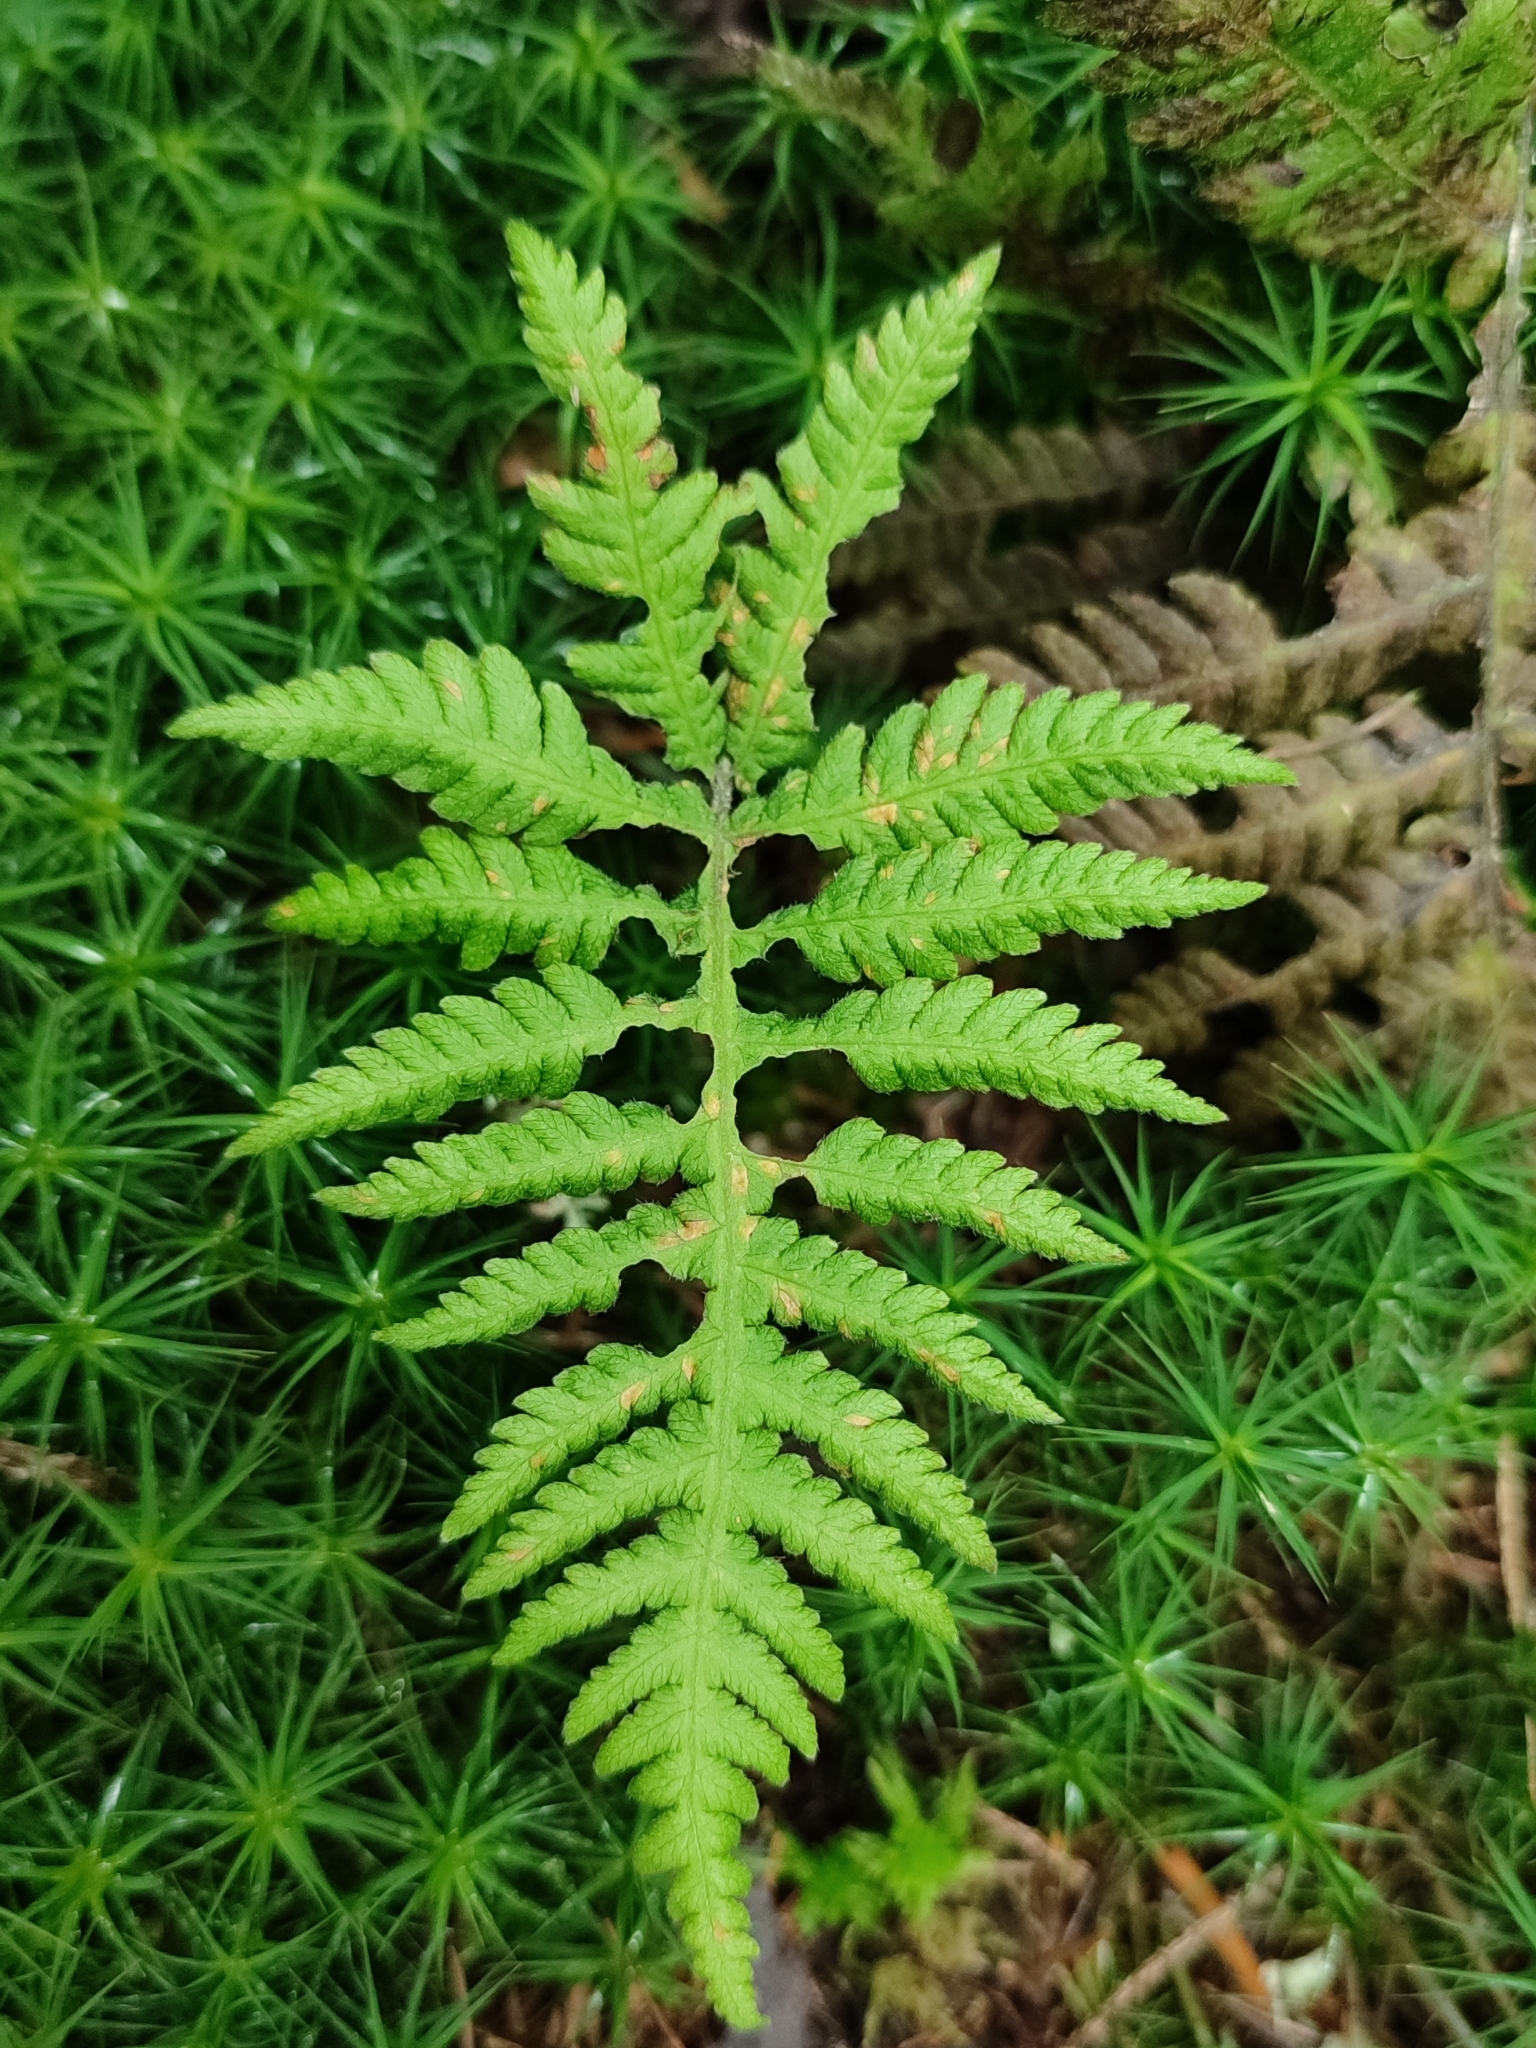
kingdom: Plantae
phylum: Tracheophyta
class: Polypodiopsida
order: Polypodiales
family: Thelypteridaceae
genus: Phegopteris
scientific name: Phegopteris connectilis
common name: Beech fern
